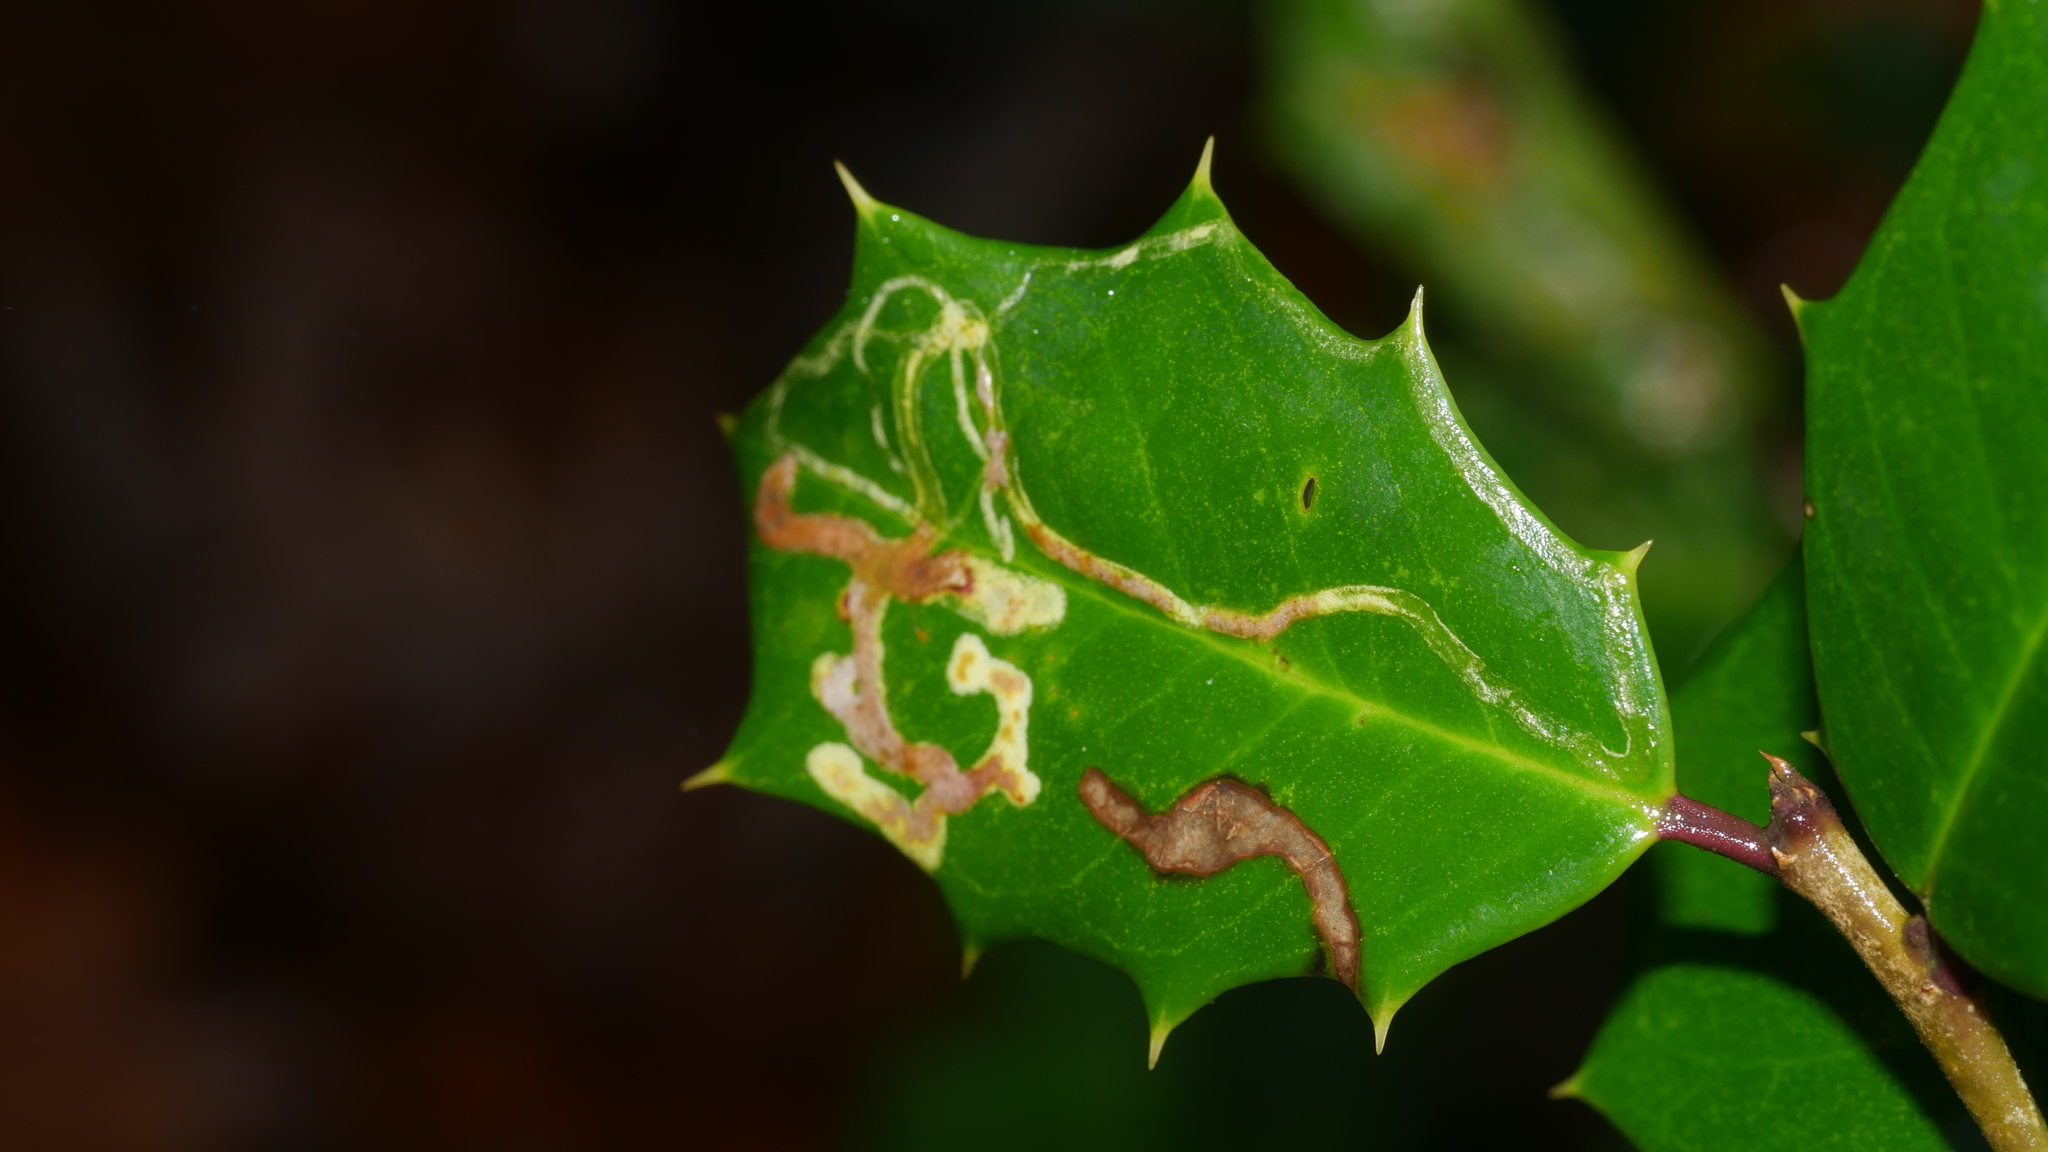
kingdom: Animalia
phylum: Arthropoda
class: Insecta
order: Diptera
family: Agromyzidae
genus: Phytomyza
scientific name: Phytomyza opacae
